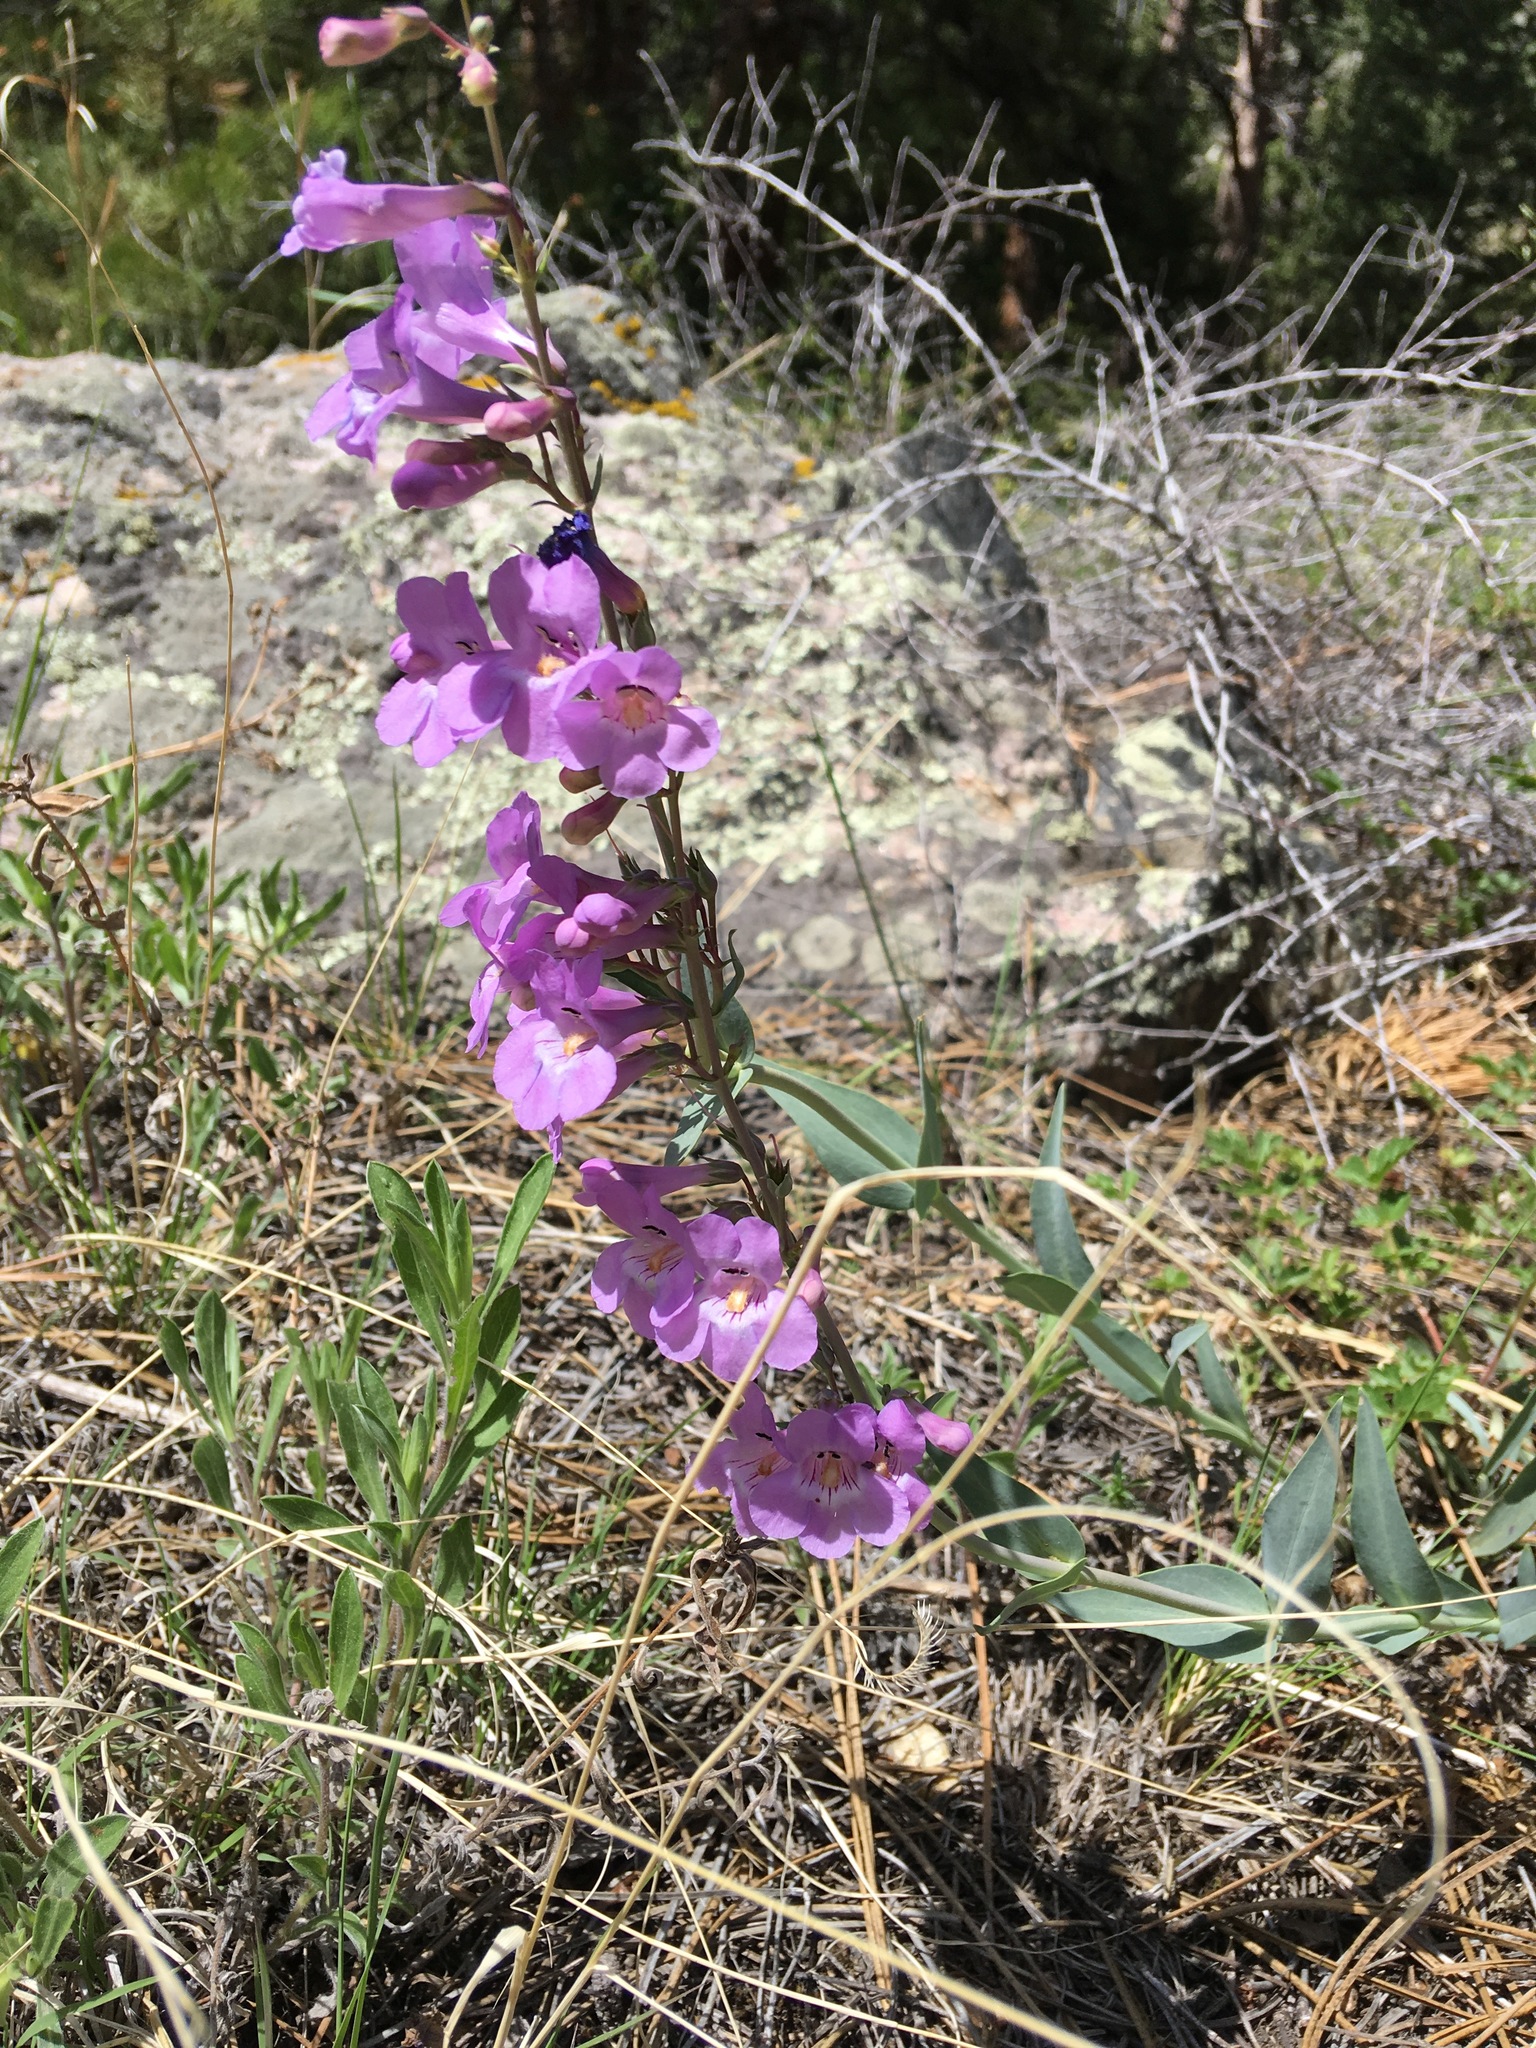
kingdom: Plantae
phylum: Tracheophyta
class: Magnoliopsida
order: Lamiales
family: Plantaginaceae
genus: Penstemon
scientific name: Penstemon secundiflorus
